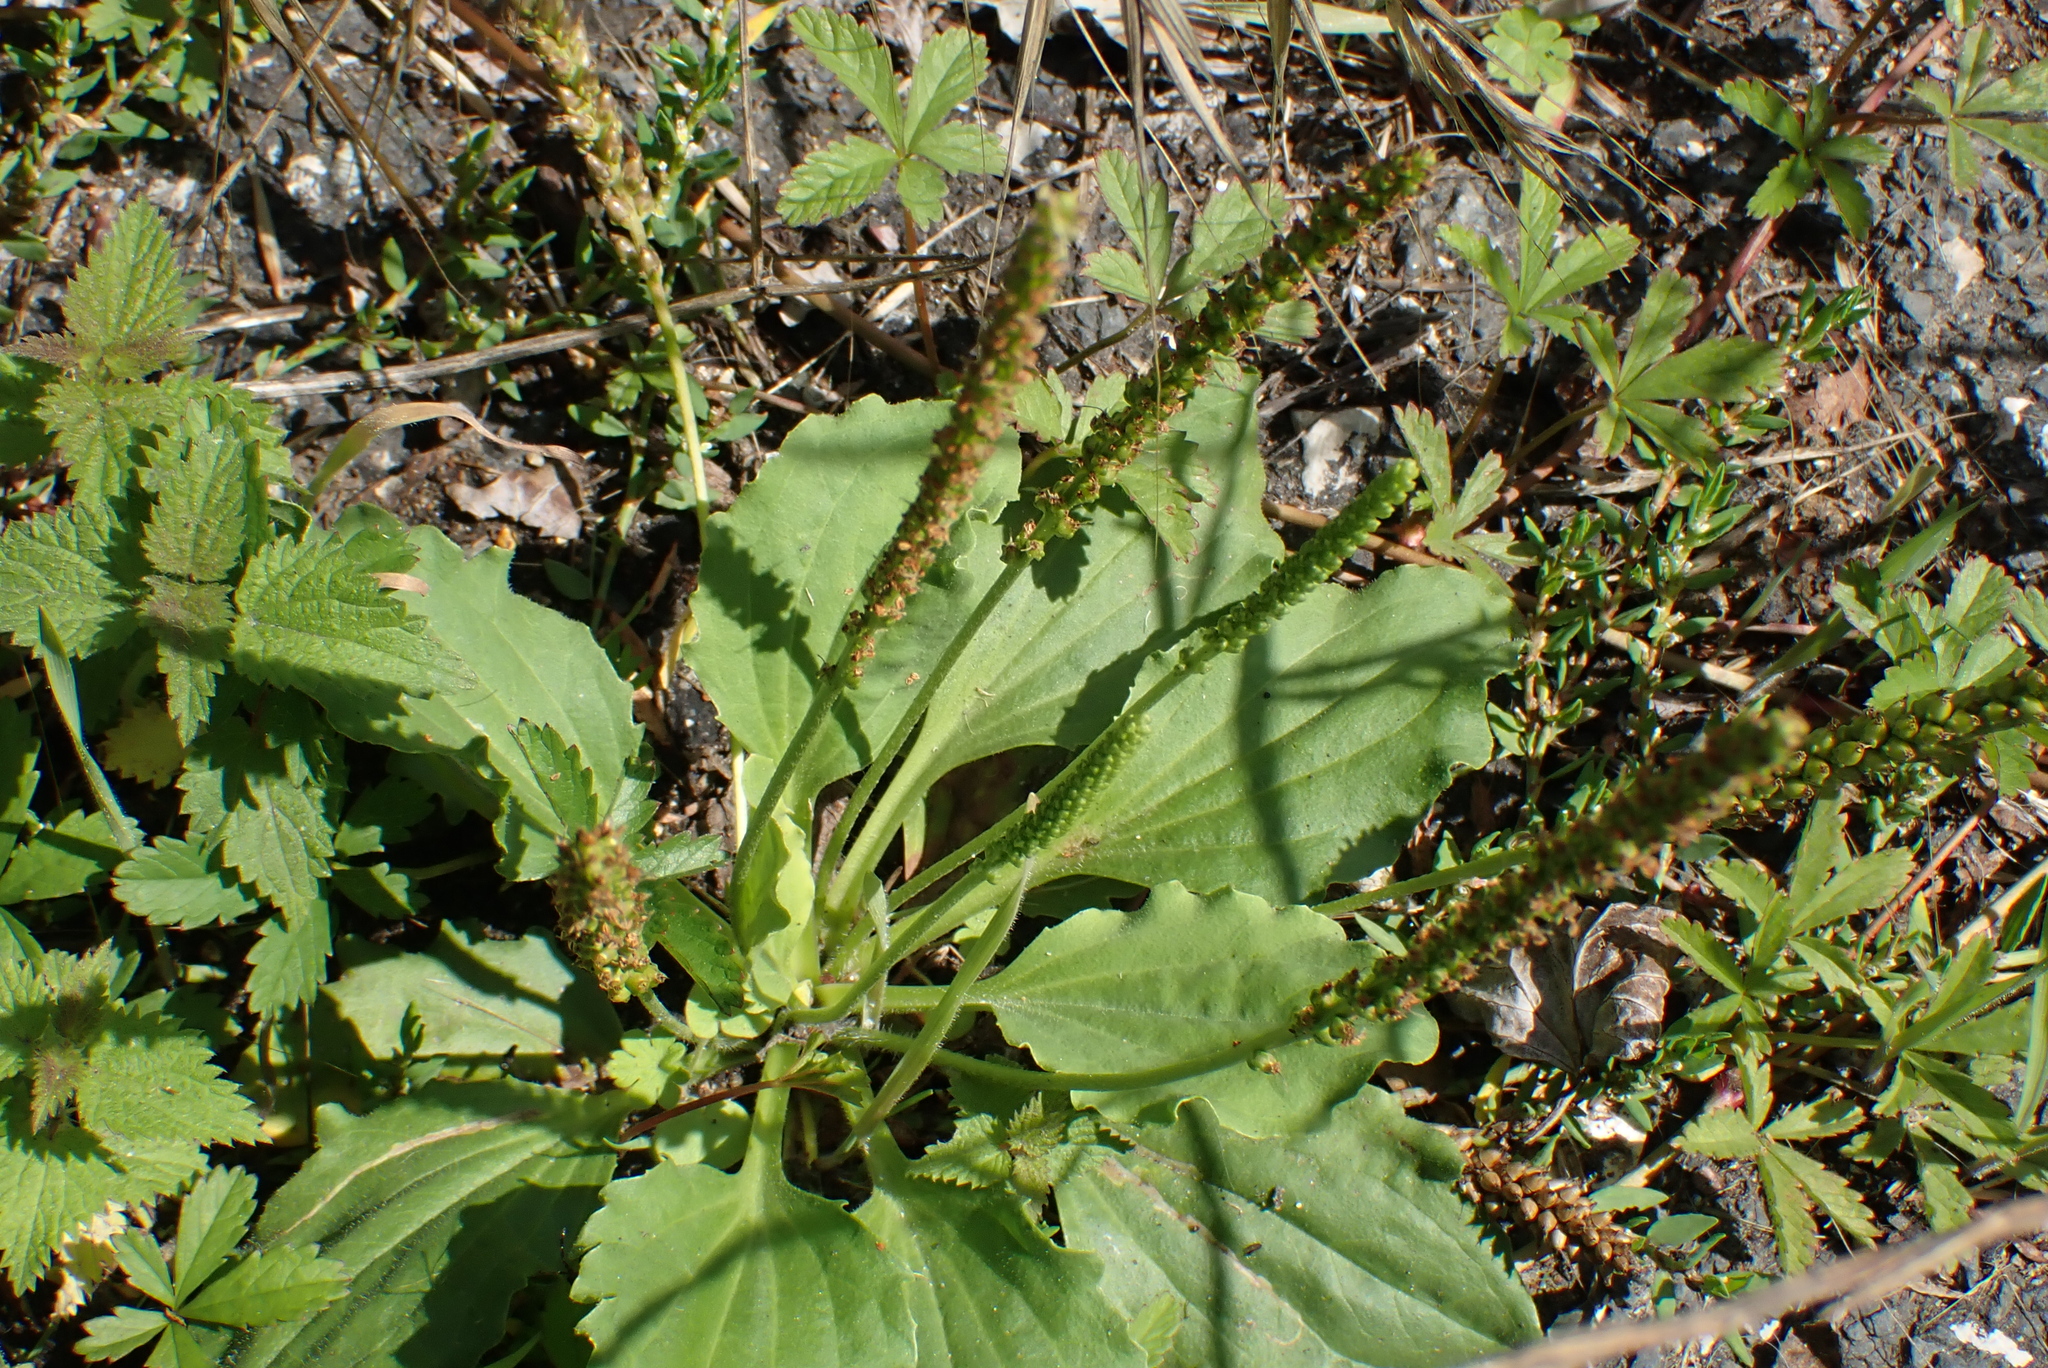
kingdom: Plantae
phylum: Tracheophyta
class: Magnoliopsida
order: Lamiales
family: Plantaginaceae
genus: Plantago
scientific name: Plantago major
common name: Common plantain
